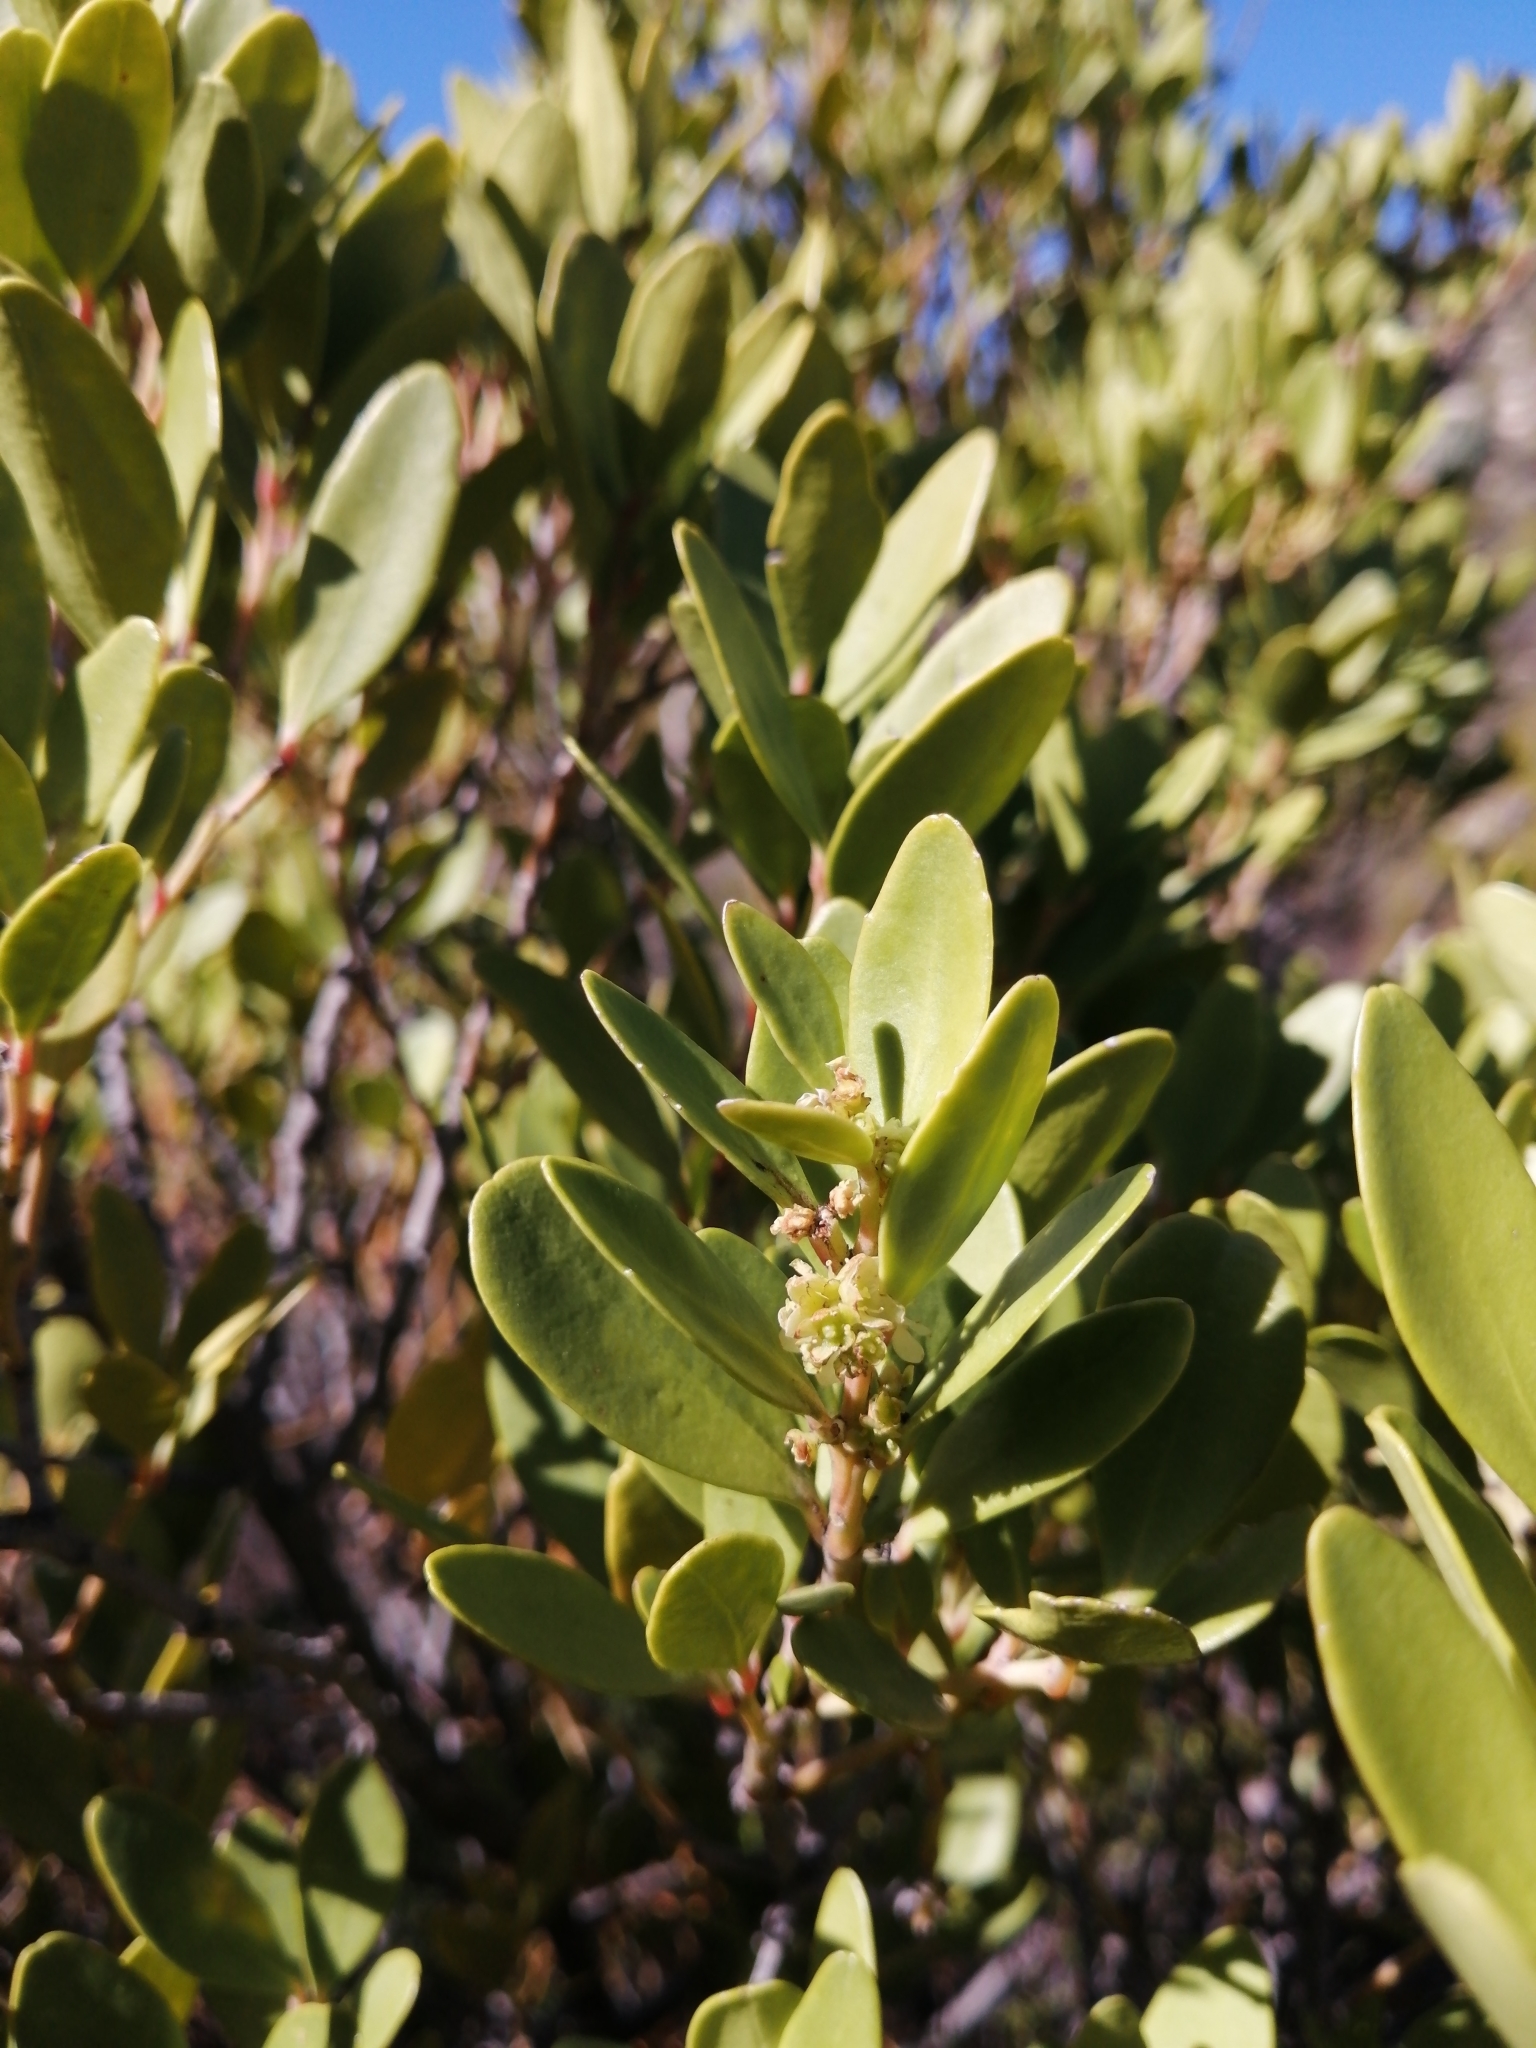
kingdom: Plantae
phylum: Tracheophyta
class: Magnoliopsida
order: Celastrales
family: Celastraceae
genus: Gymnosporia
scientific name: Gymnosporia laurina
